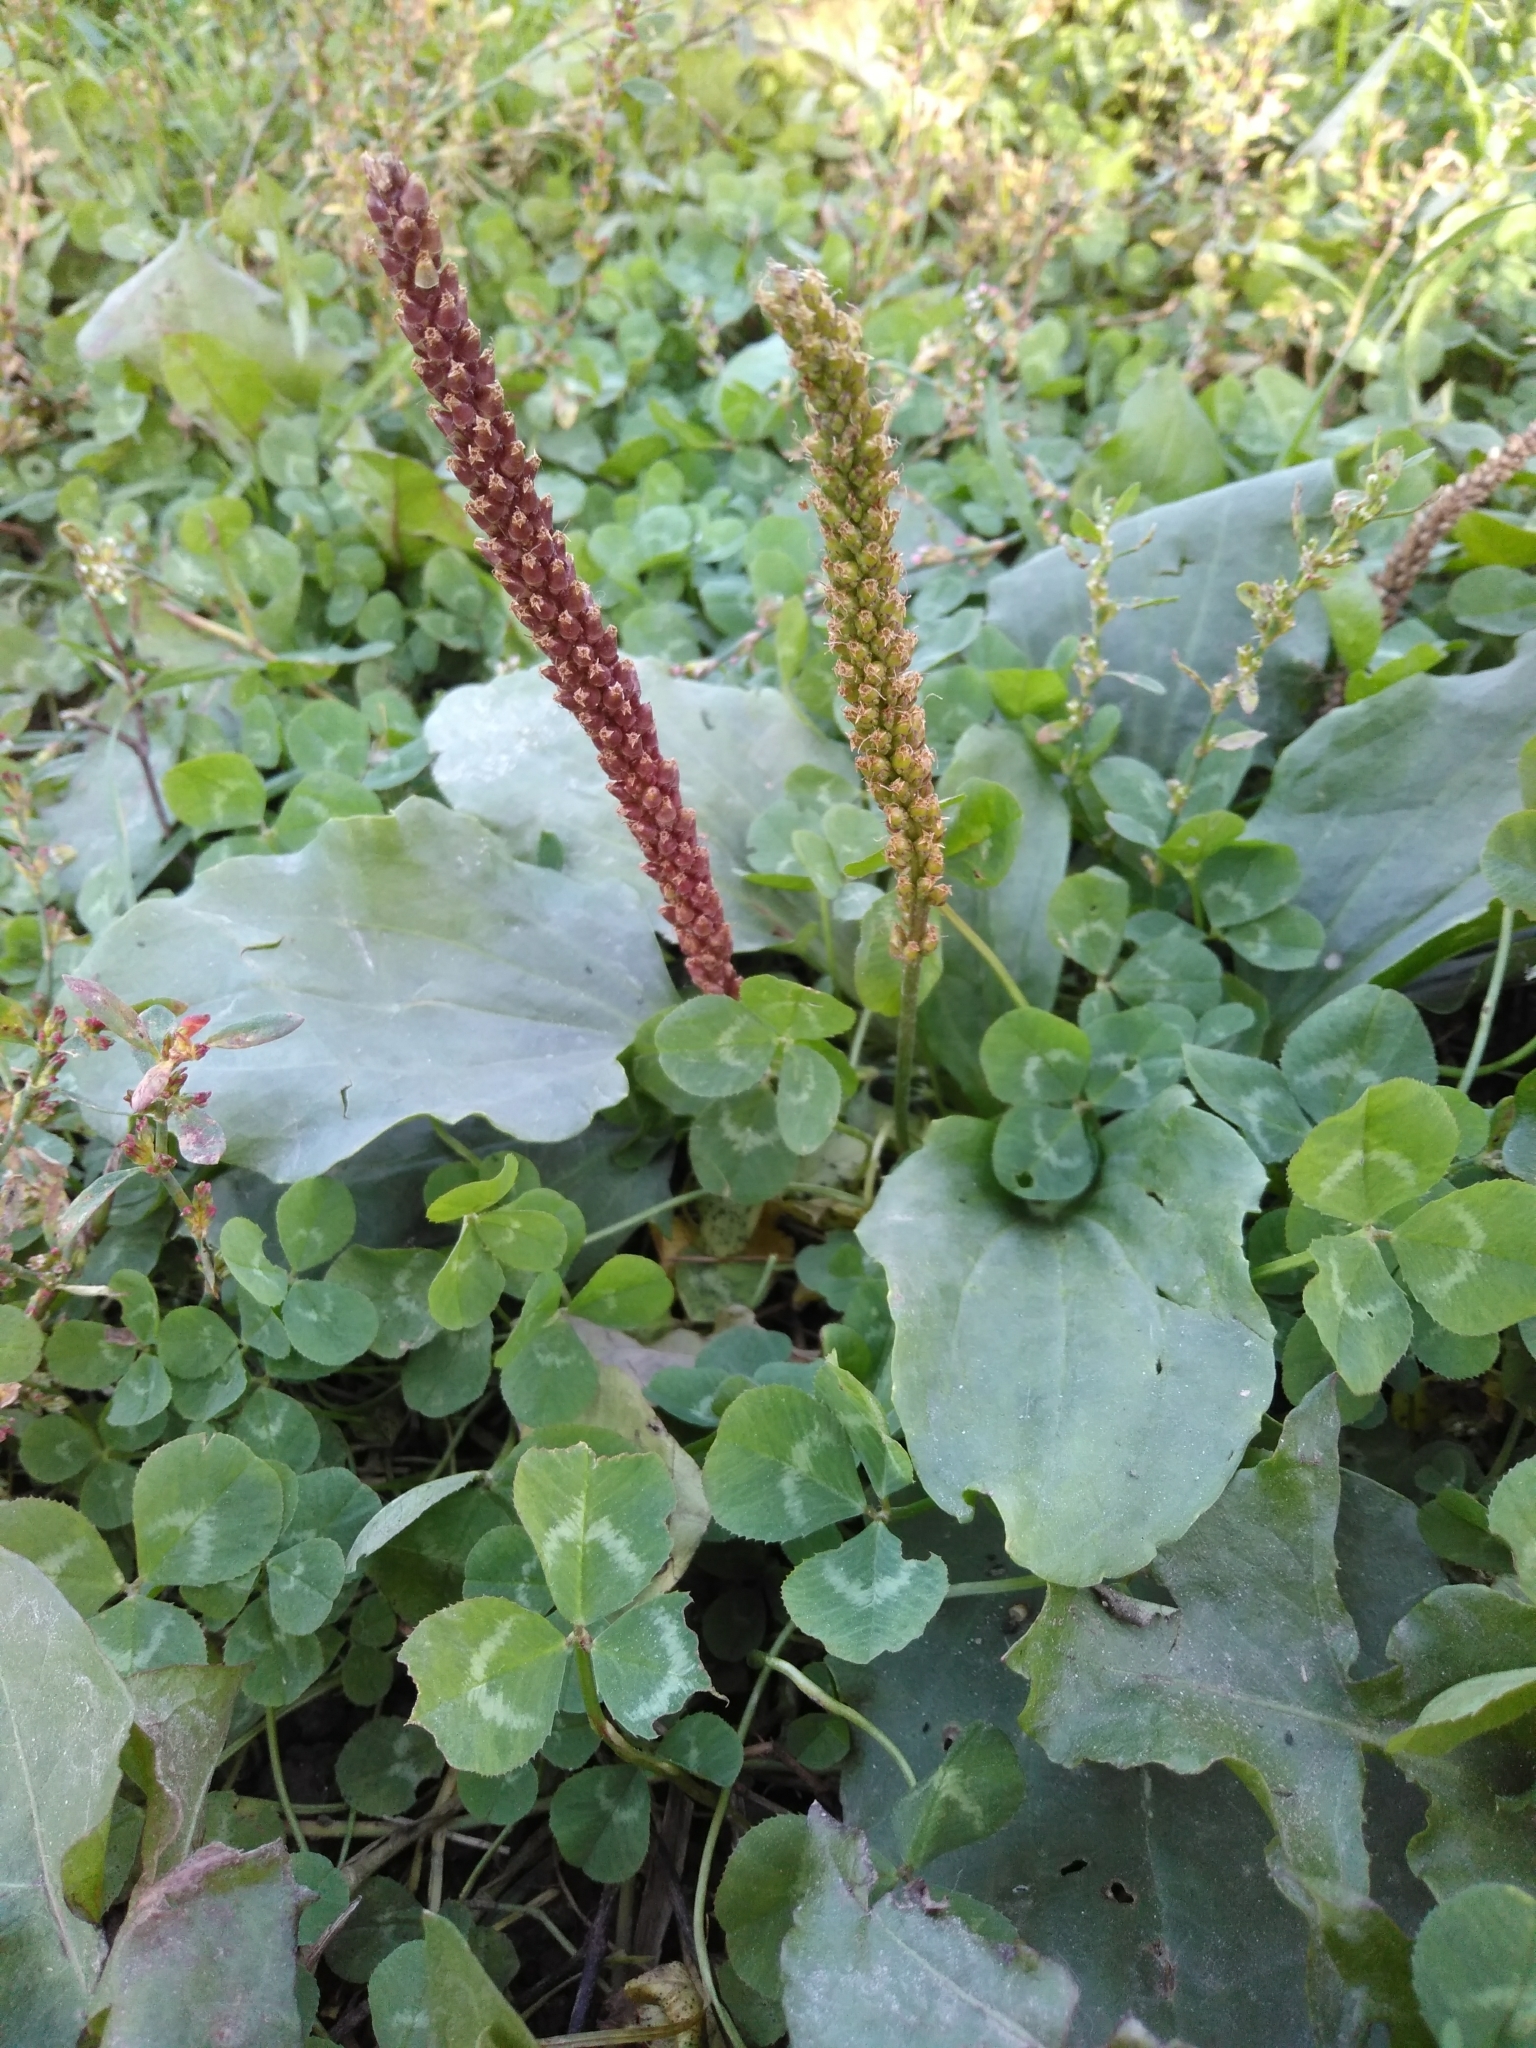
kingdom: Plantae
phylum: Tracheophyta
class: Magnoliopsida
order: Lamiales
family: Plantaginaceae
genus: Plantago
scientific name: Plantago major
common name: Common plantain
